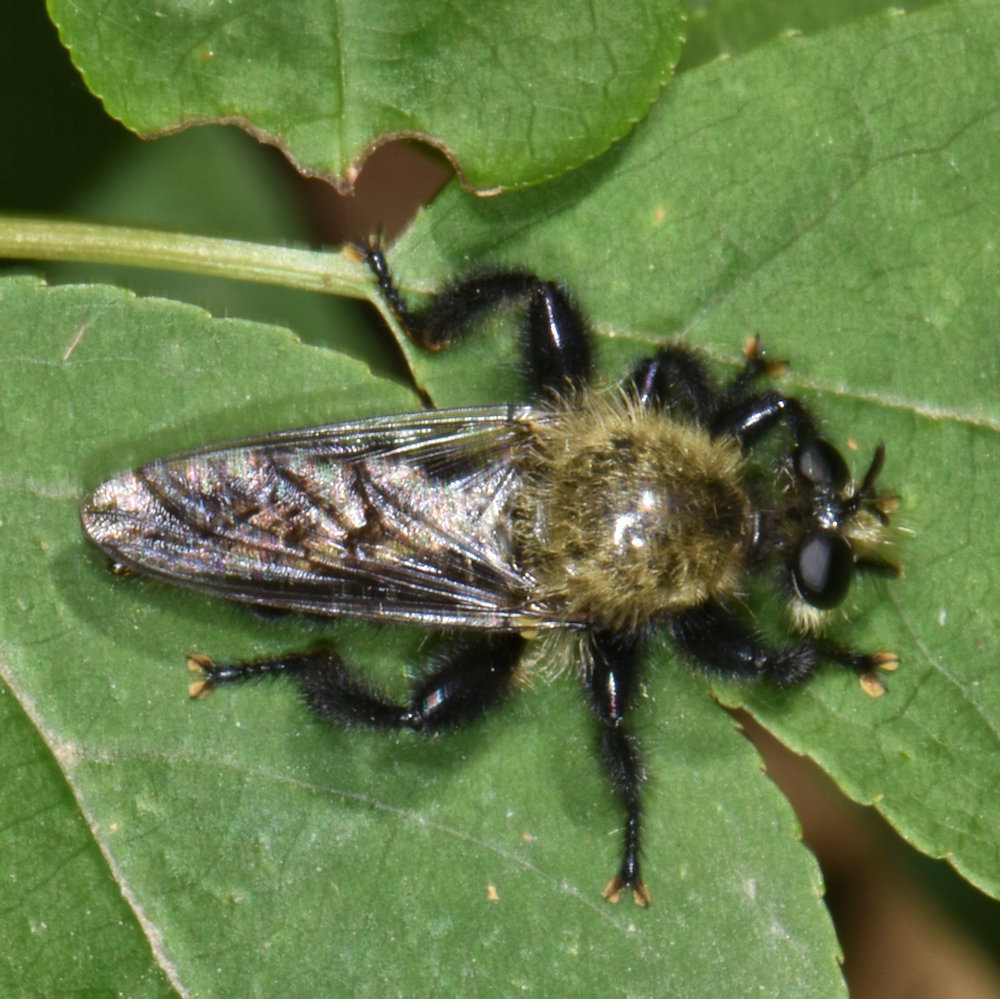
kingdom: Animalia
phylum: Arthropoda
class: Insecta
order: Diptera
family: Asilidae
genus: Laphria
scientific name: Laphria flavicollis
